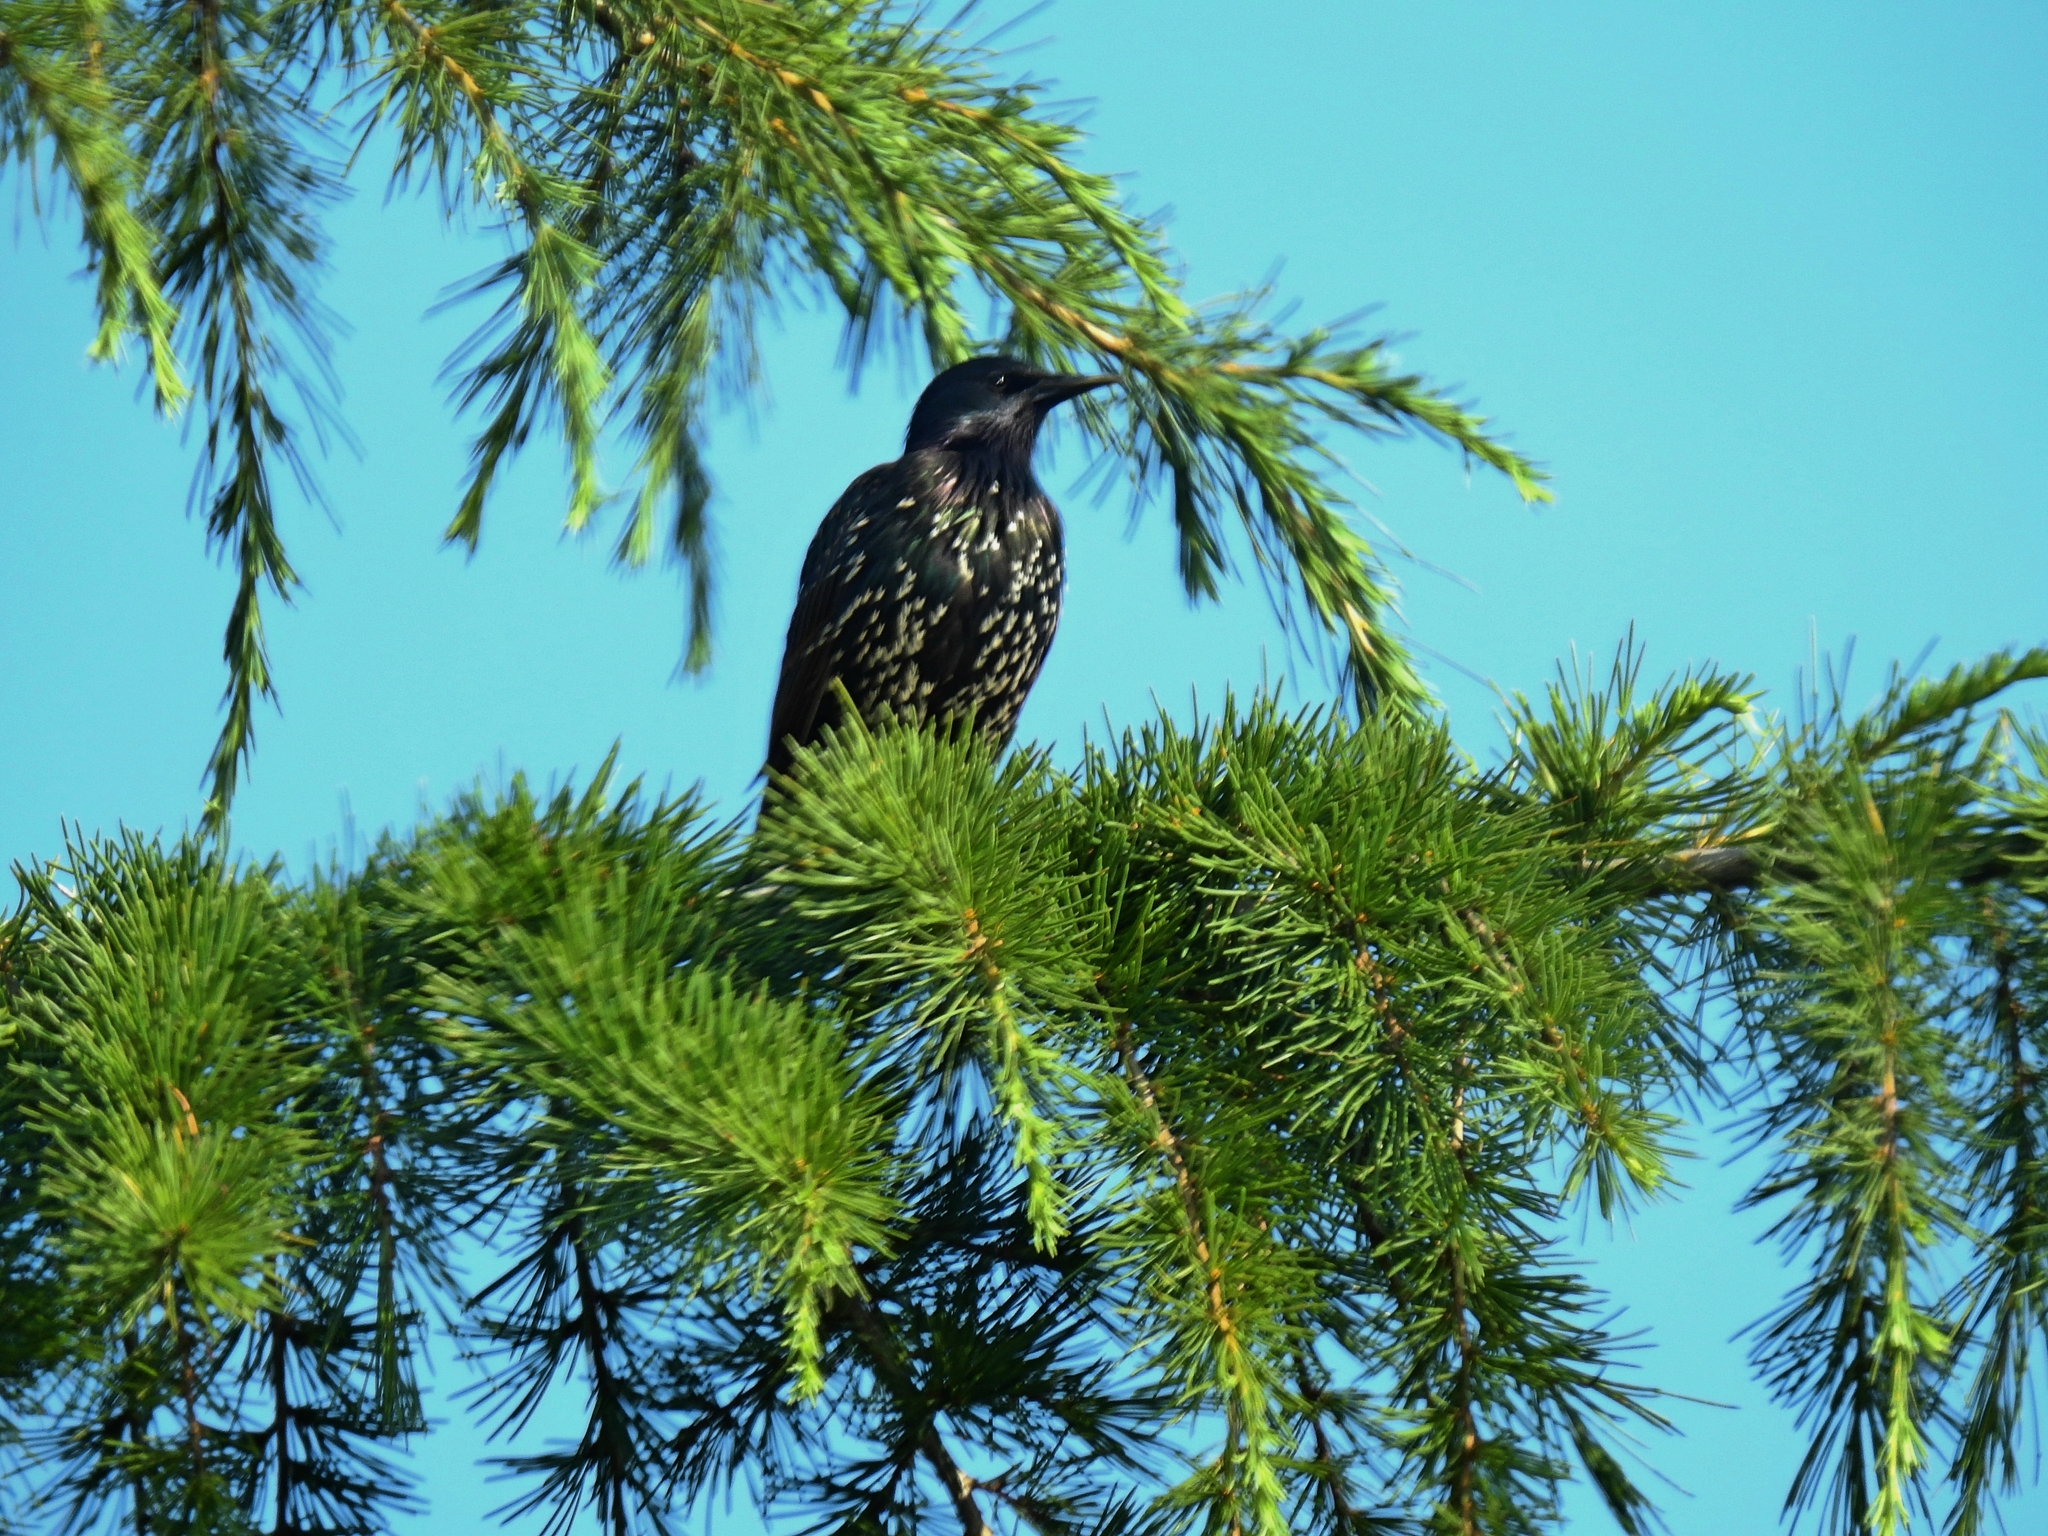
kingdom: Animalia
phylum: Chordata
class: Aves
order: Passeriformes
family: Sturnidae
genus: Sturnus
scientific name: Sturnus vulgaris
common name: Common starling
